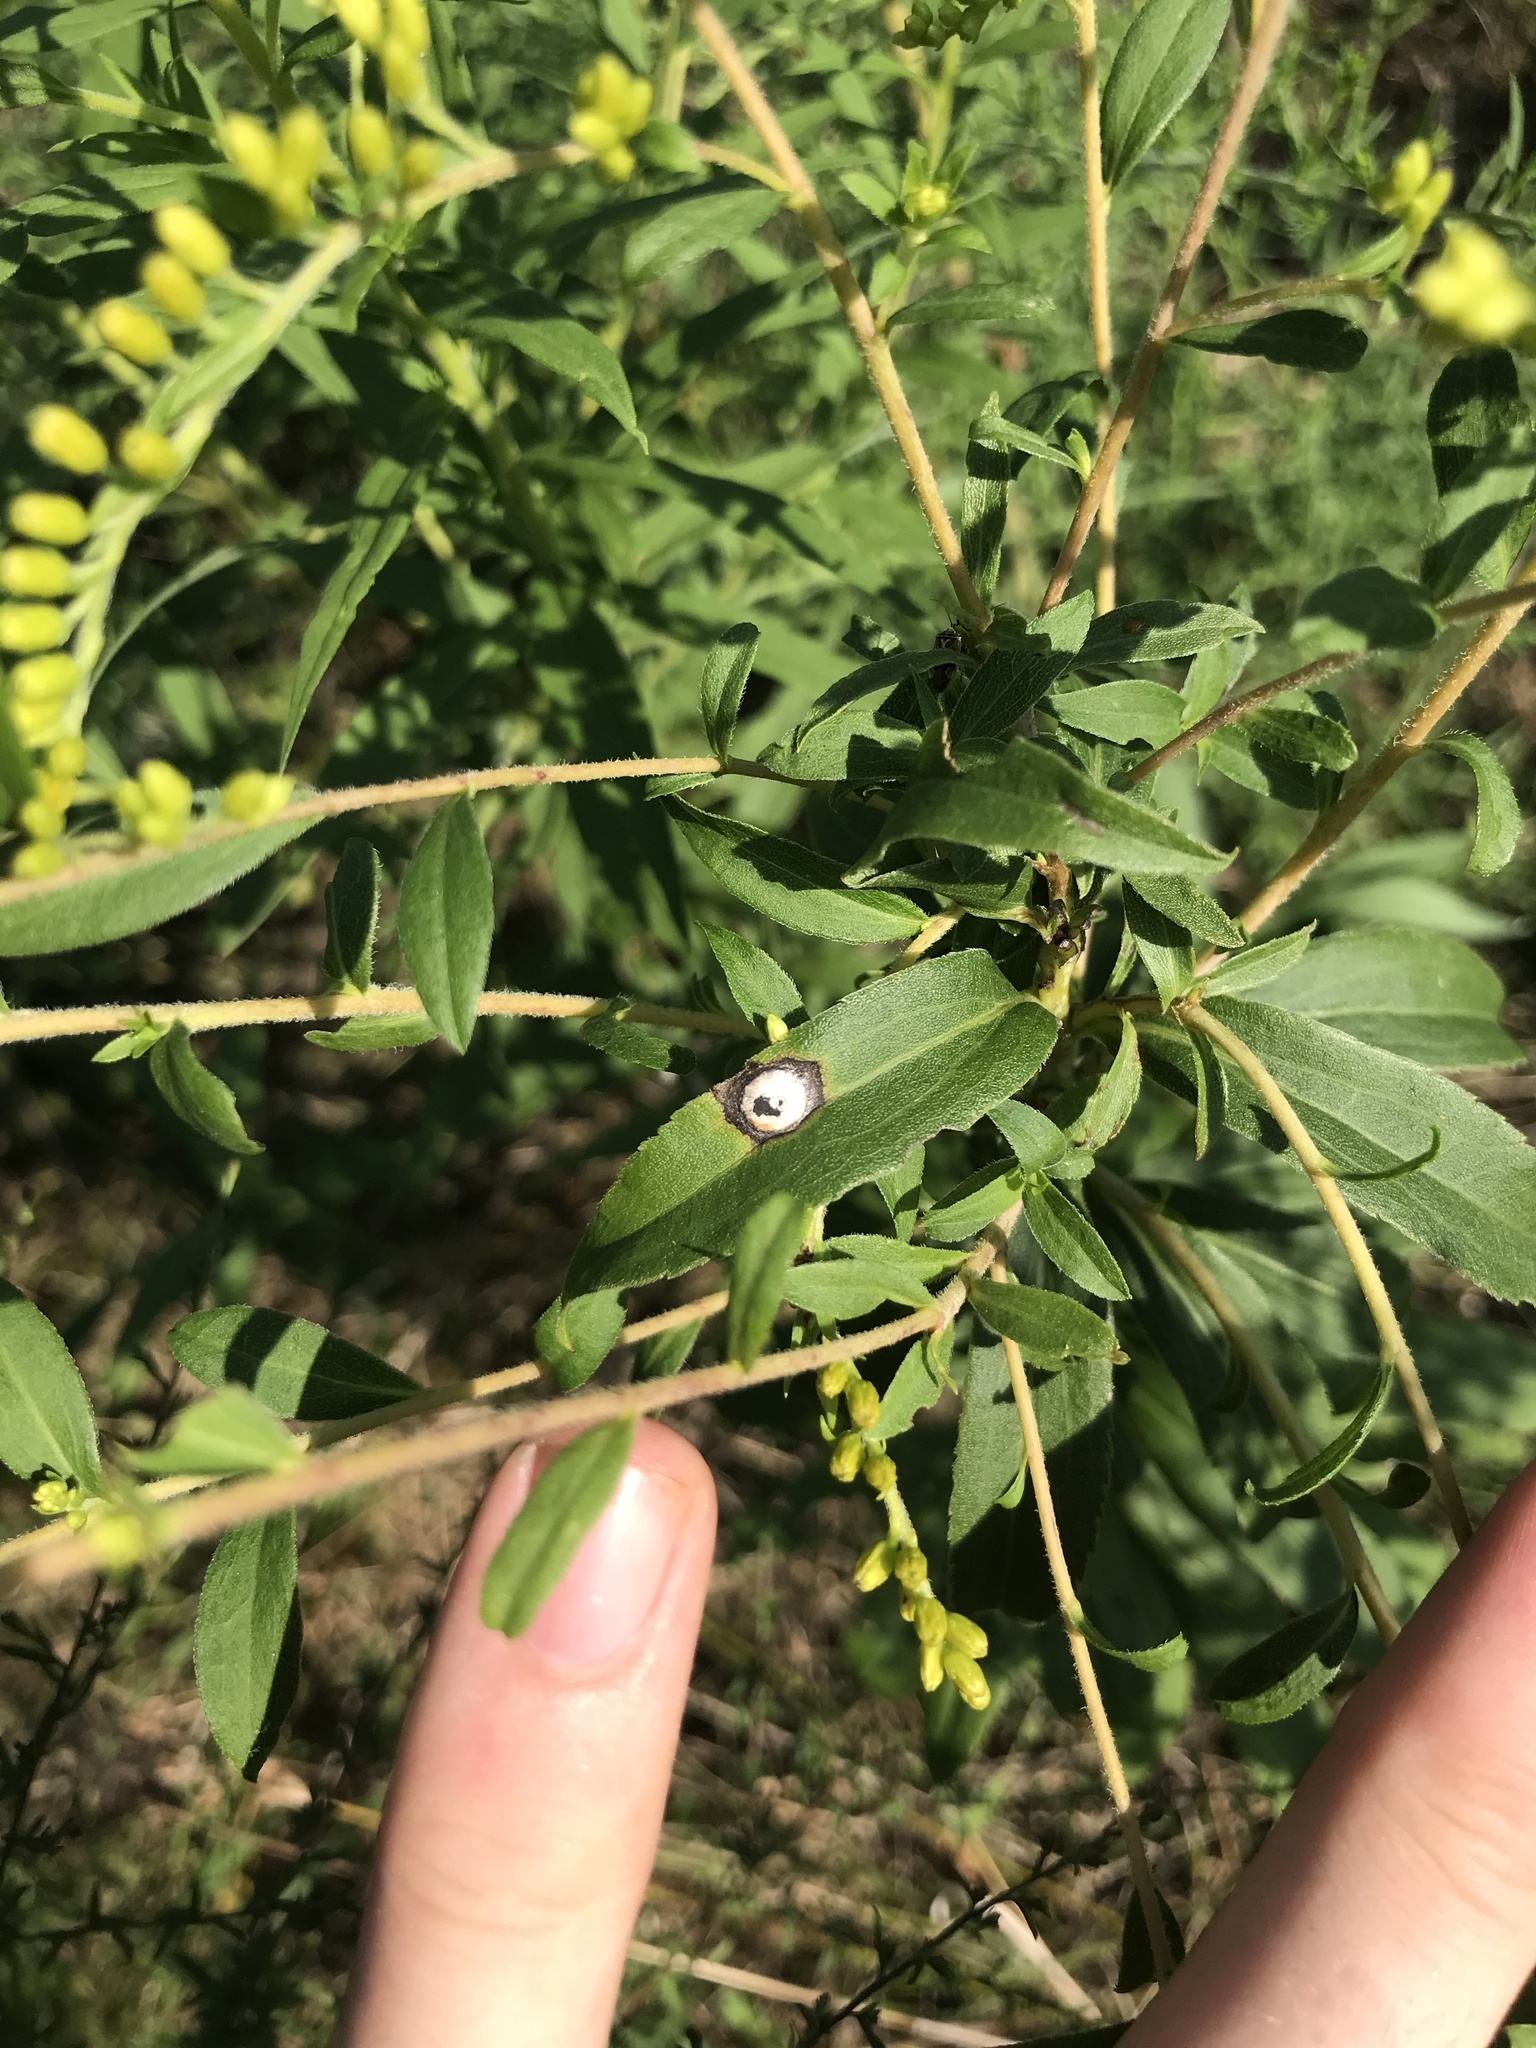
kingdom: Animalia
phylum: Arthropoda
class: Insecta
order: Diptera
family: Cecidomyiidae
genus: Asteromyia
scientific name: Asteromyia carbonifera
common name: Carbonifera goldenrod gall midge
